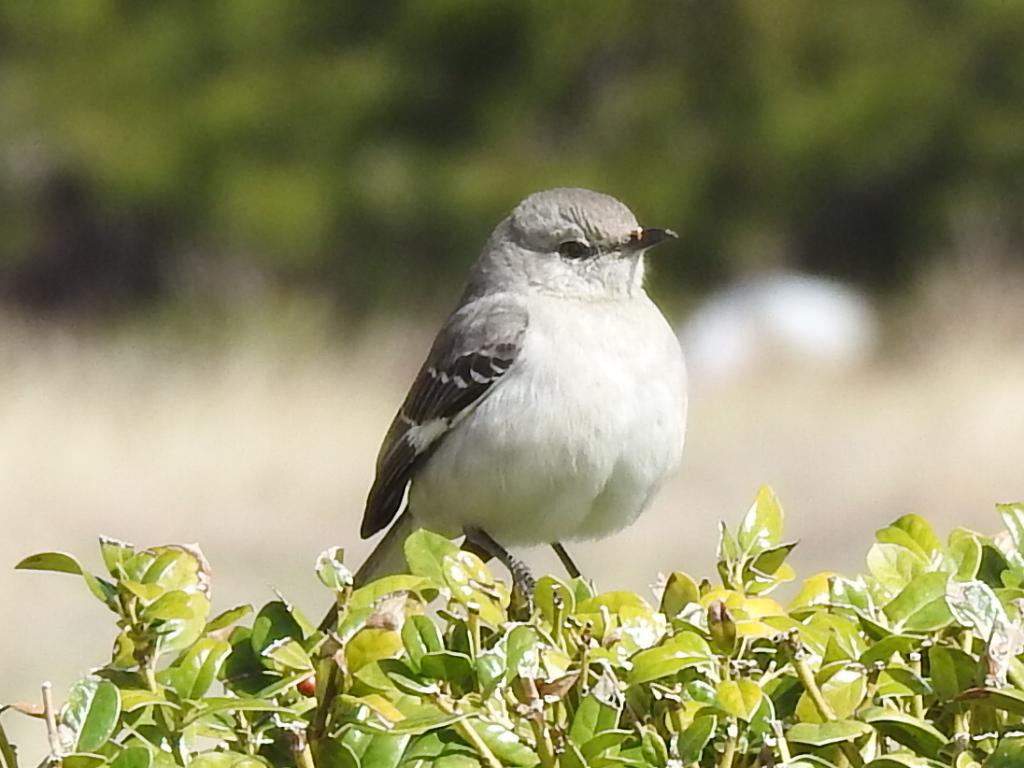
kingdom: Animalia
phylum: Chordata
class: Aves
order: Passeriformes
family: Mimidae
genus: Mimus
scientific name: Mimus polyglottos
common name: Northern mockingbird
